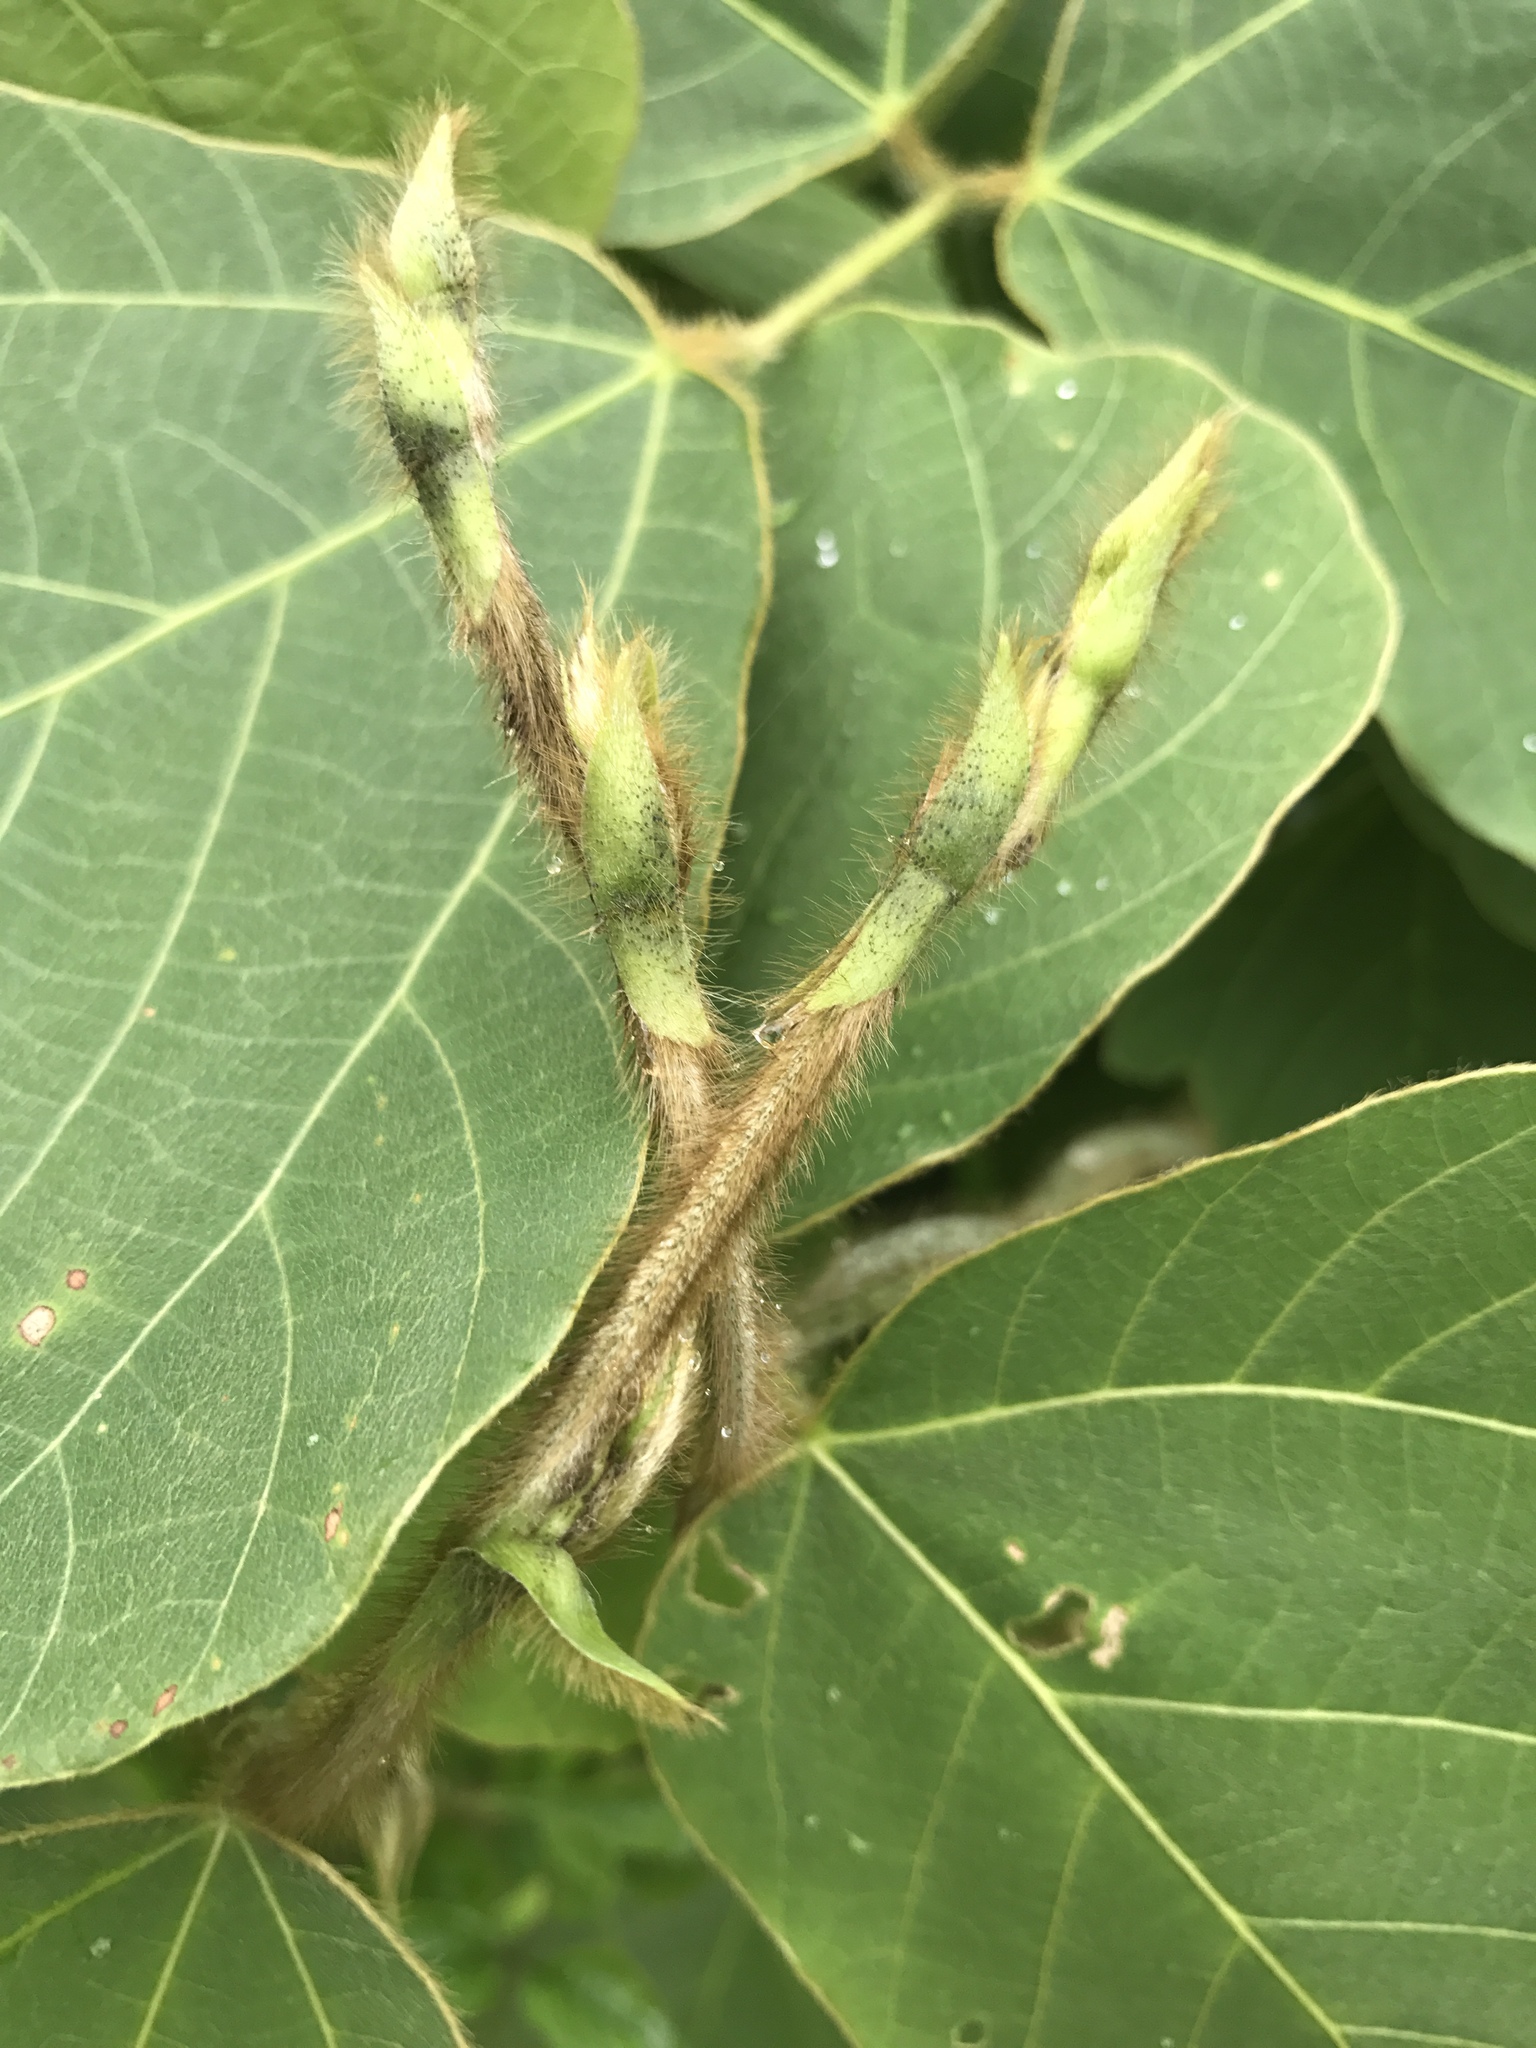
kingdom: Plantae
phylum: Tracheophyta
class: Magnoliopsida
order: Fabales
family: Fabaceae
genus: Pueraria
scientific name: Pueraria montana
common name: Kudzu
